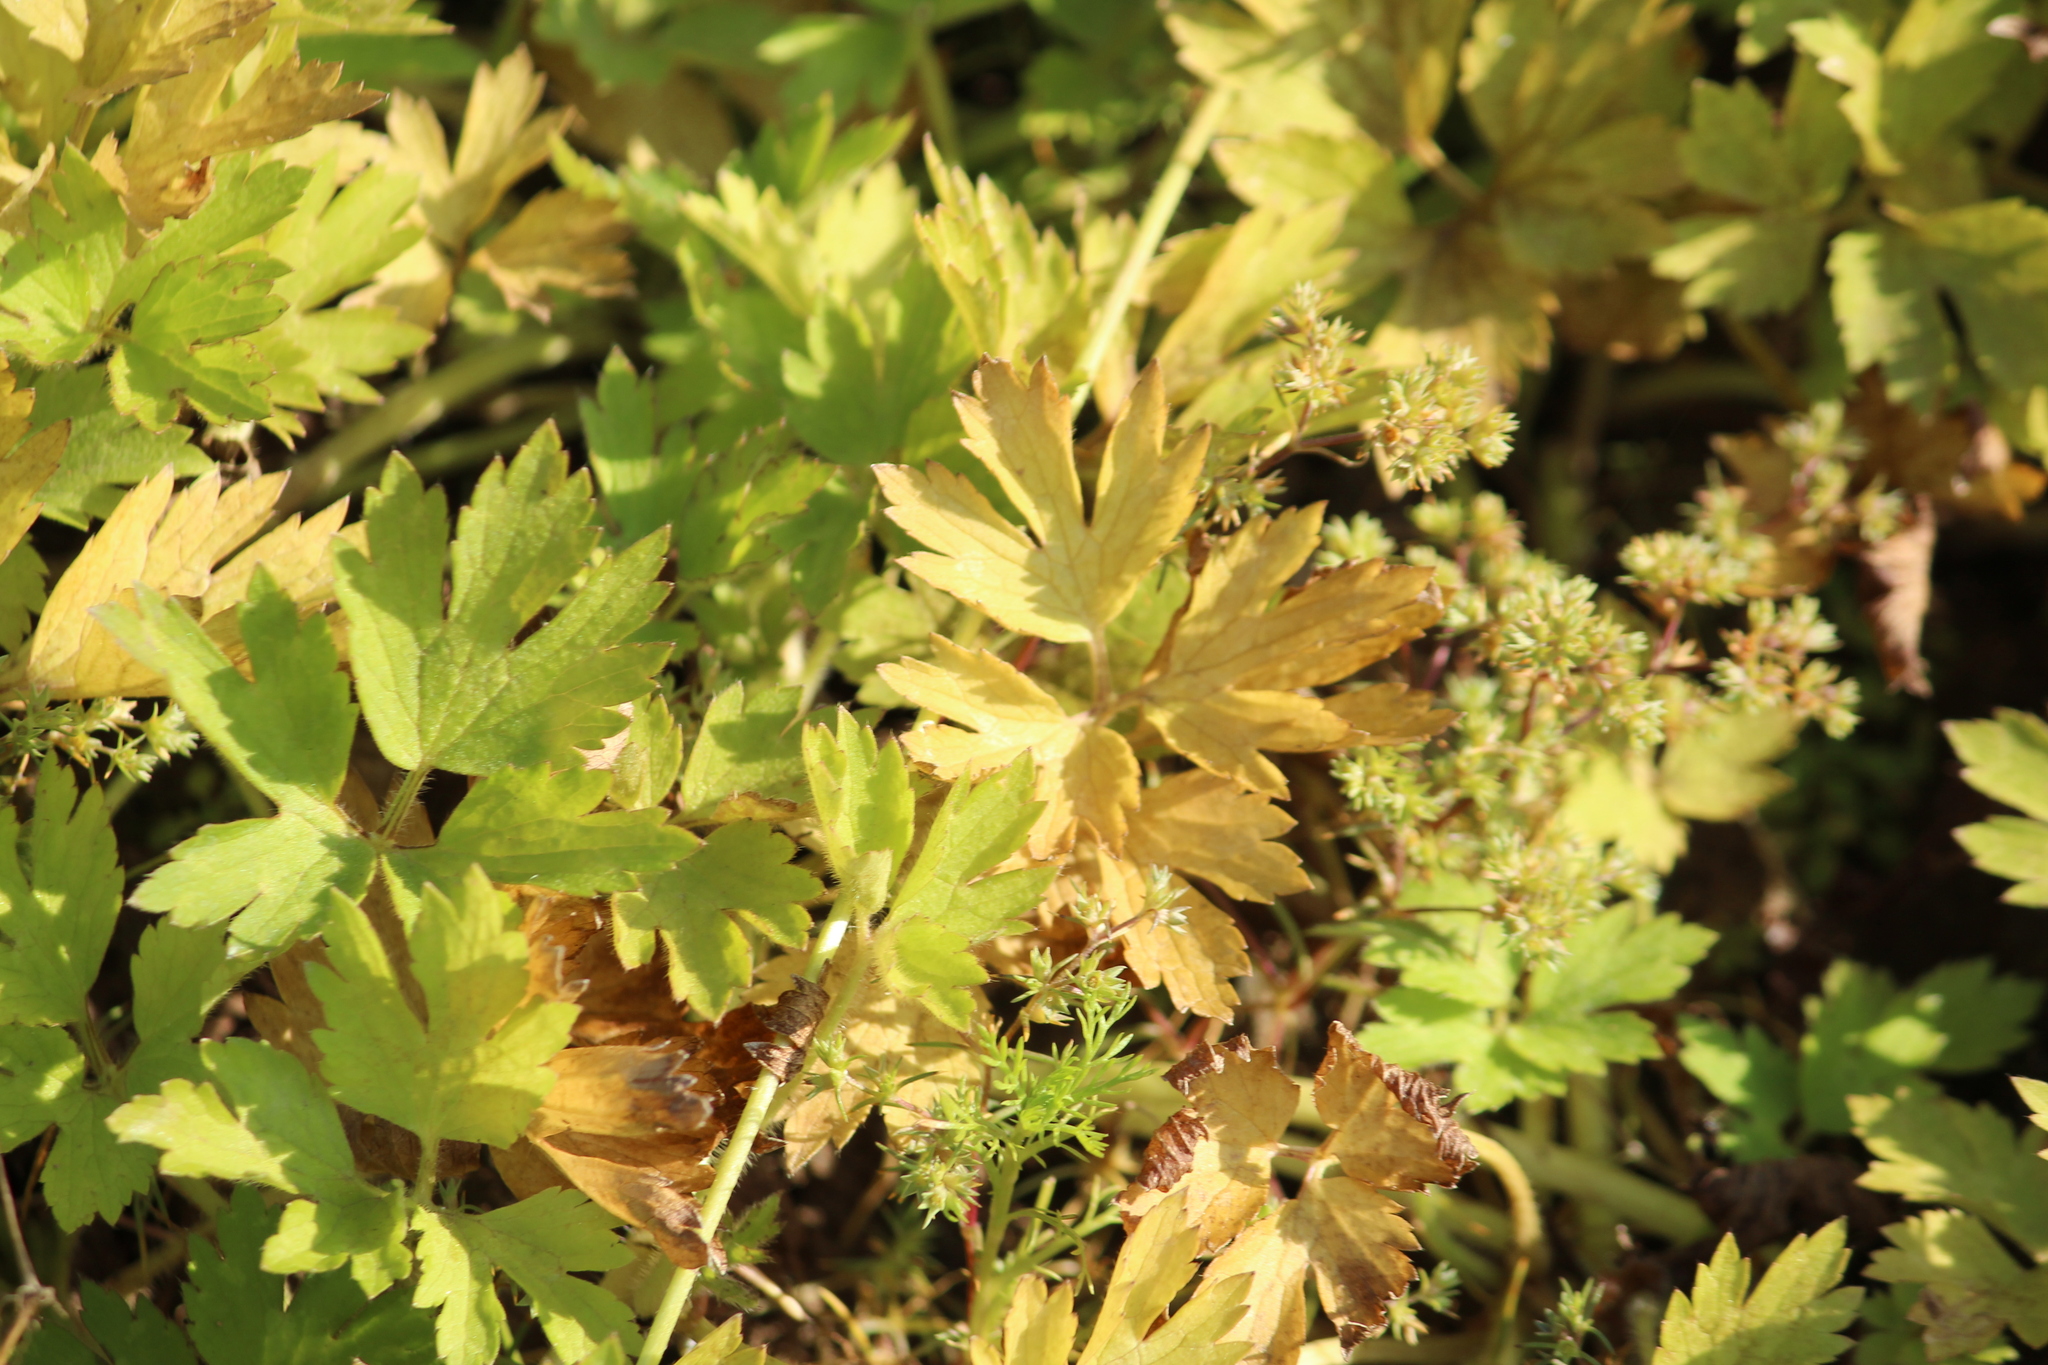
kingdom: Plantae
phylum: Tracheophyta
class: Magnoliopsida
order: Ranunculales
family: Ranunculaceae
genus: Ranunculus
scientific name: Ranunculus repens
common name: Creeping buttercup
